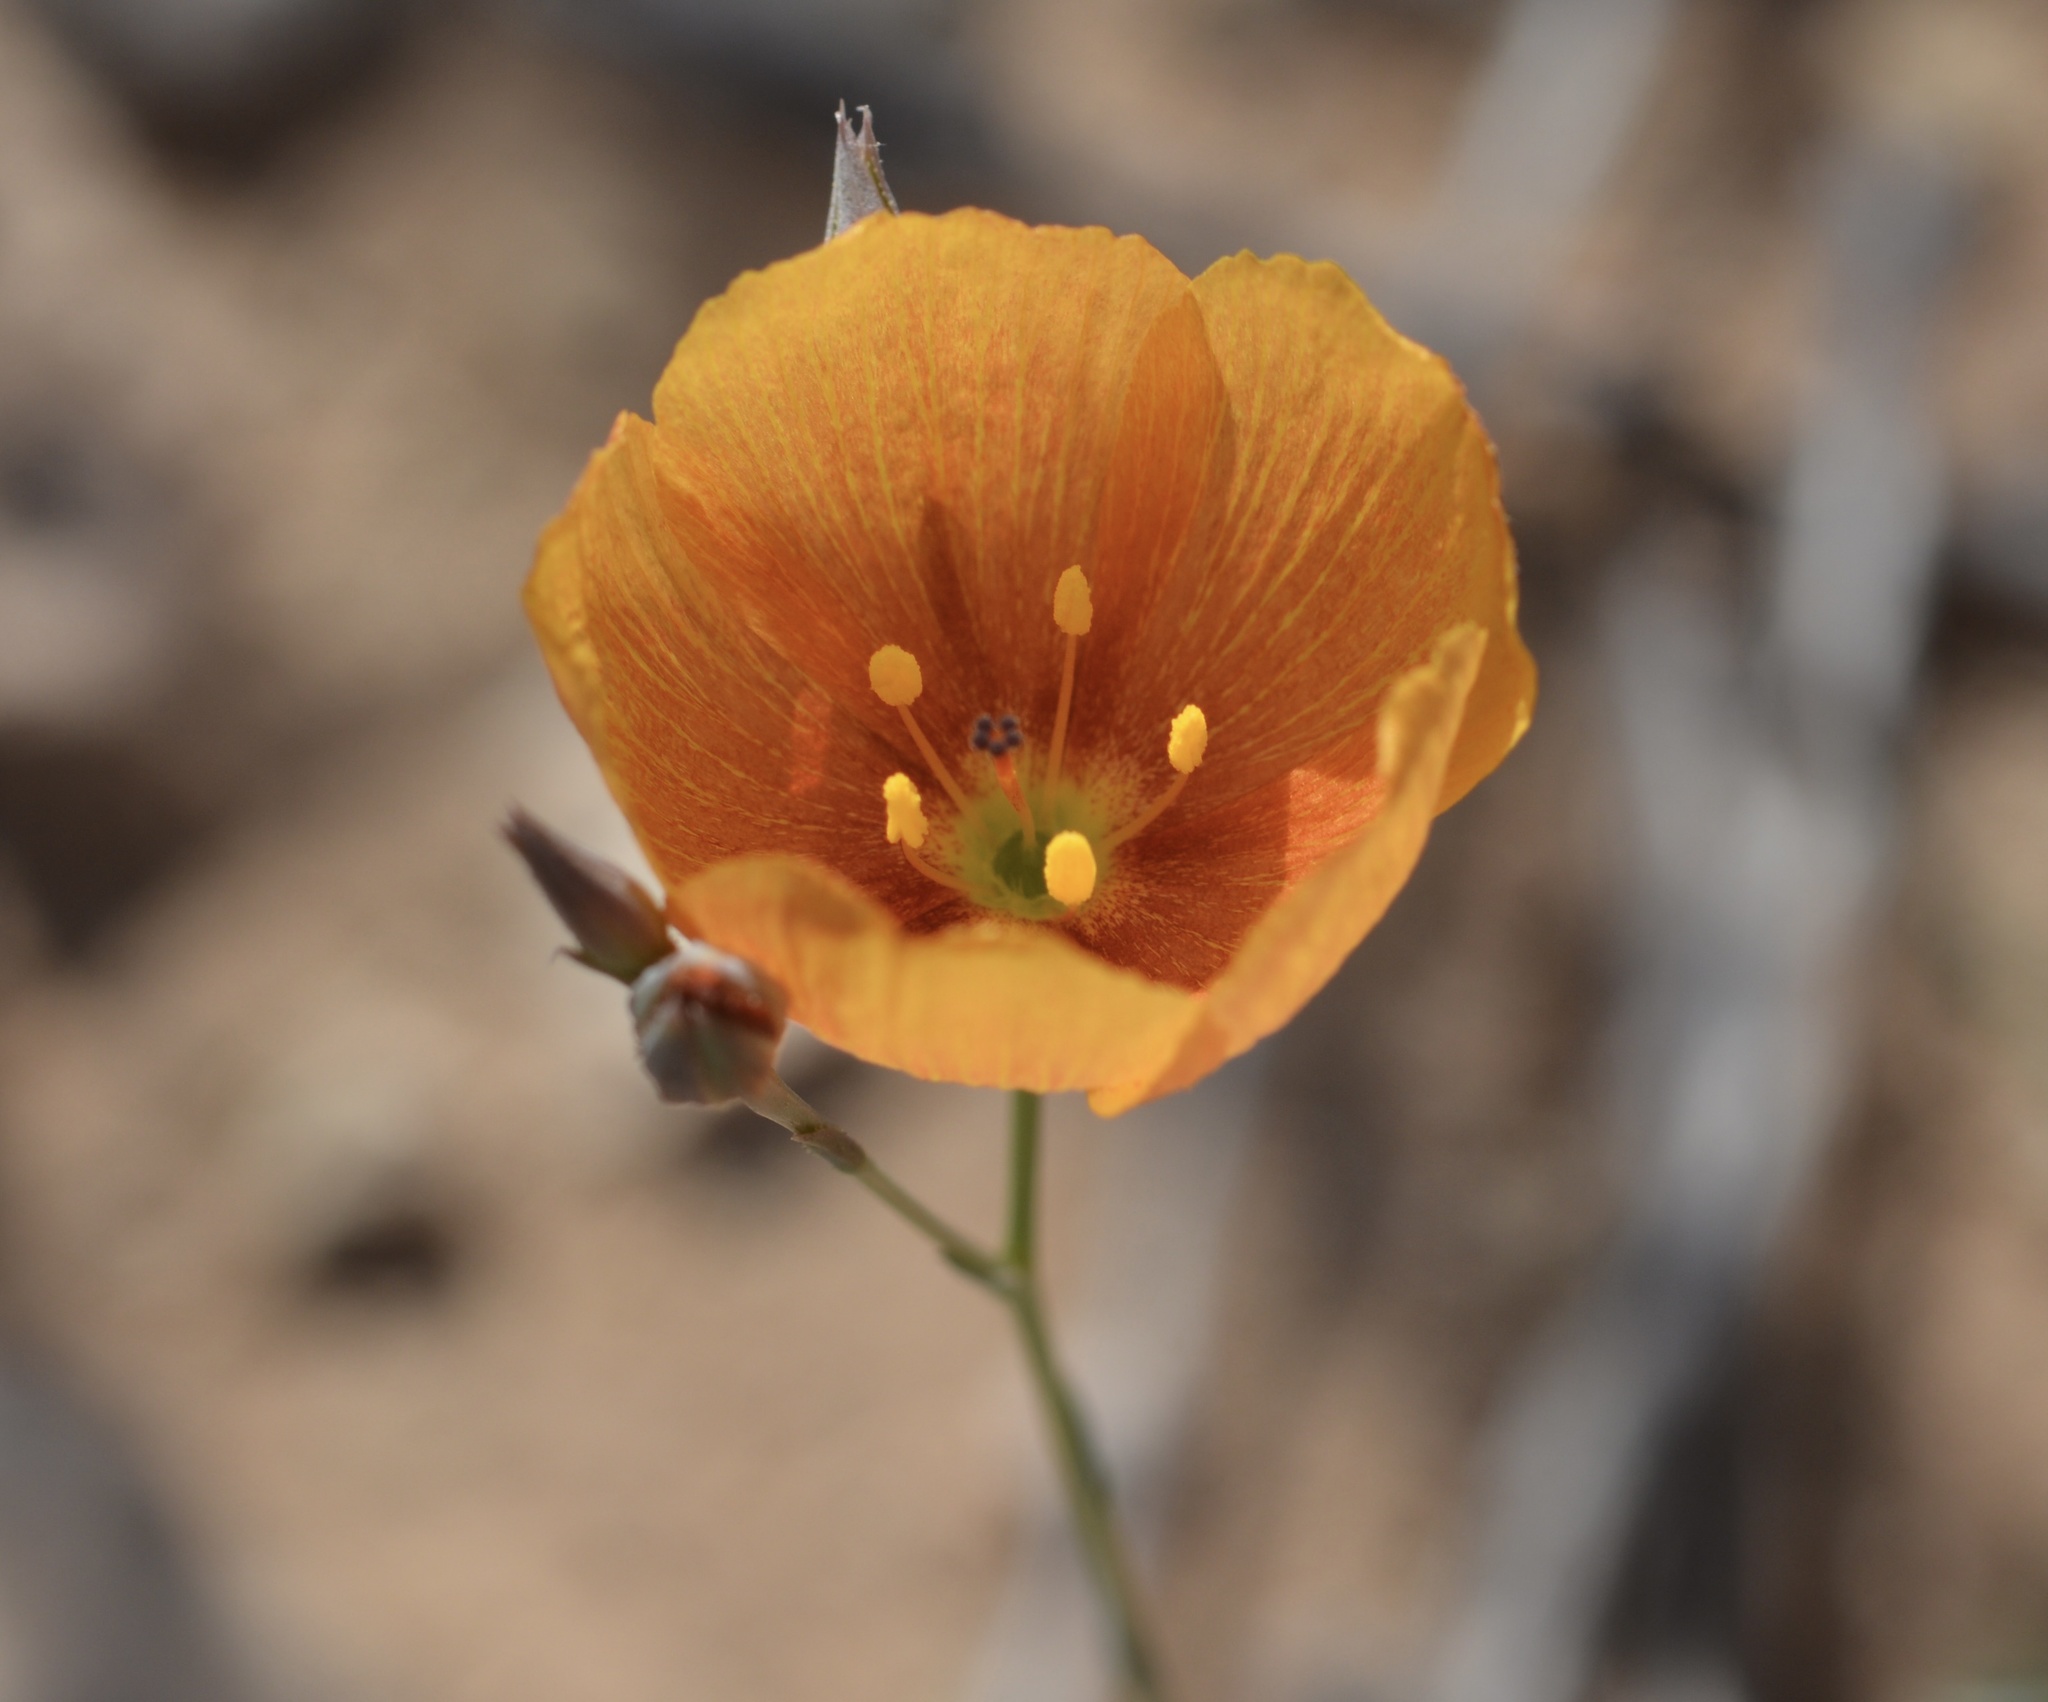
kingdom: Plantae
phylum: Tracheophyta
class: Magnoliopsida
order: Malpighiales
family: Linaceae
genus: Linum
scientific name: Linum vernale
